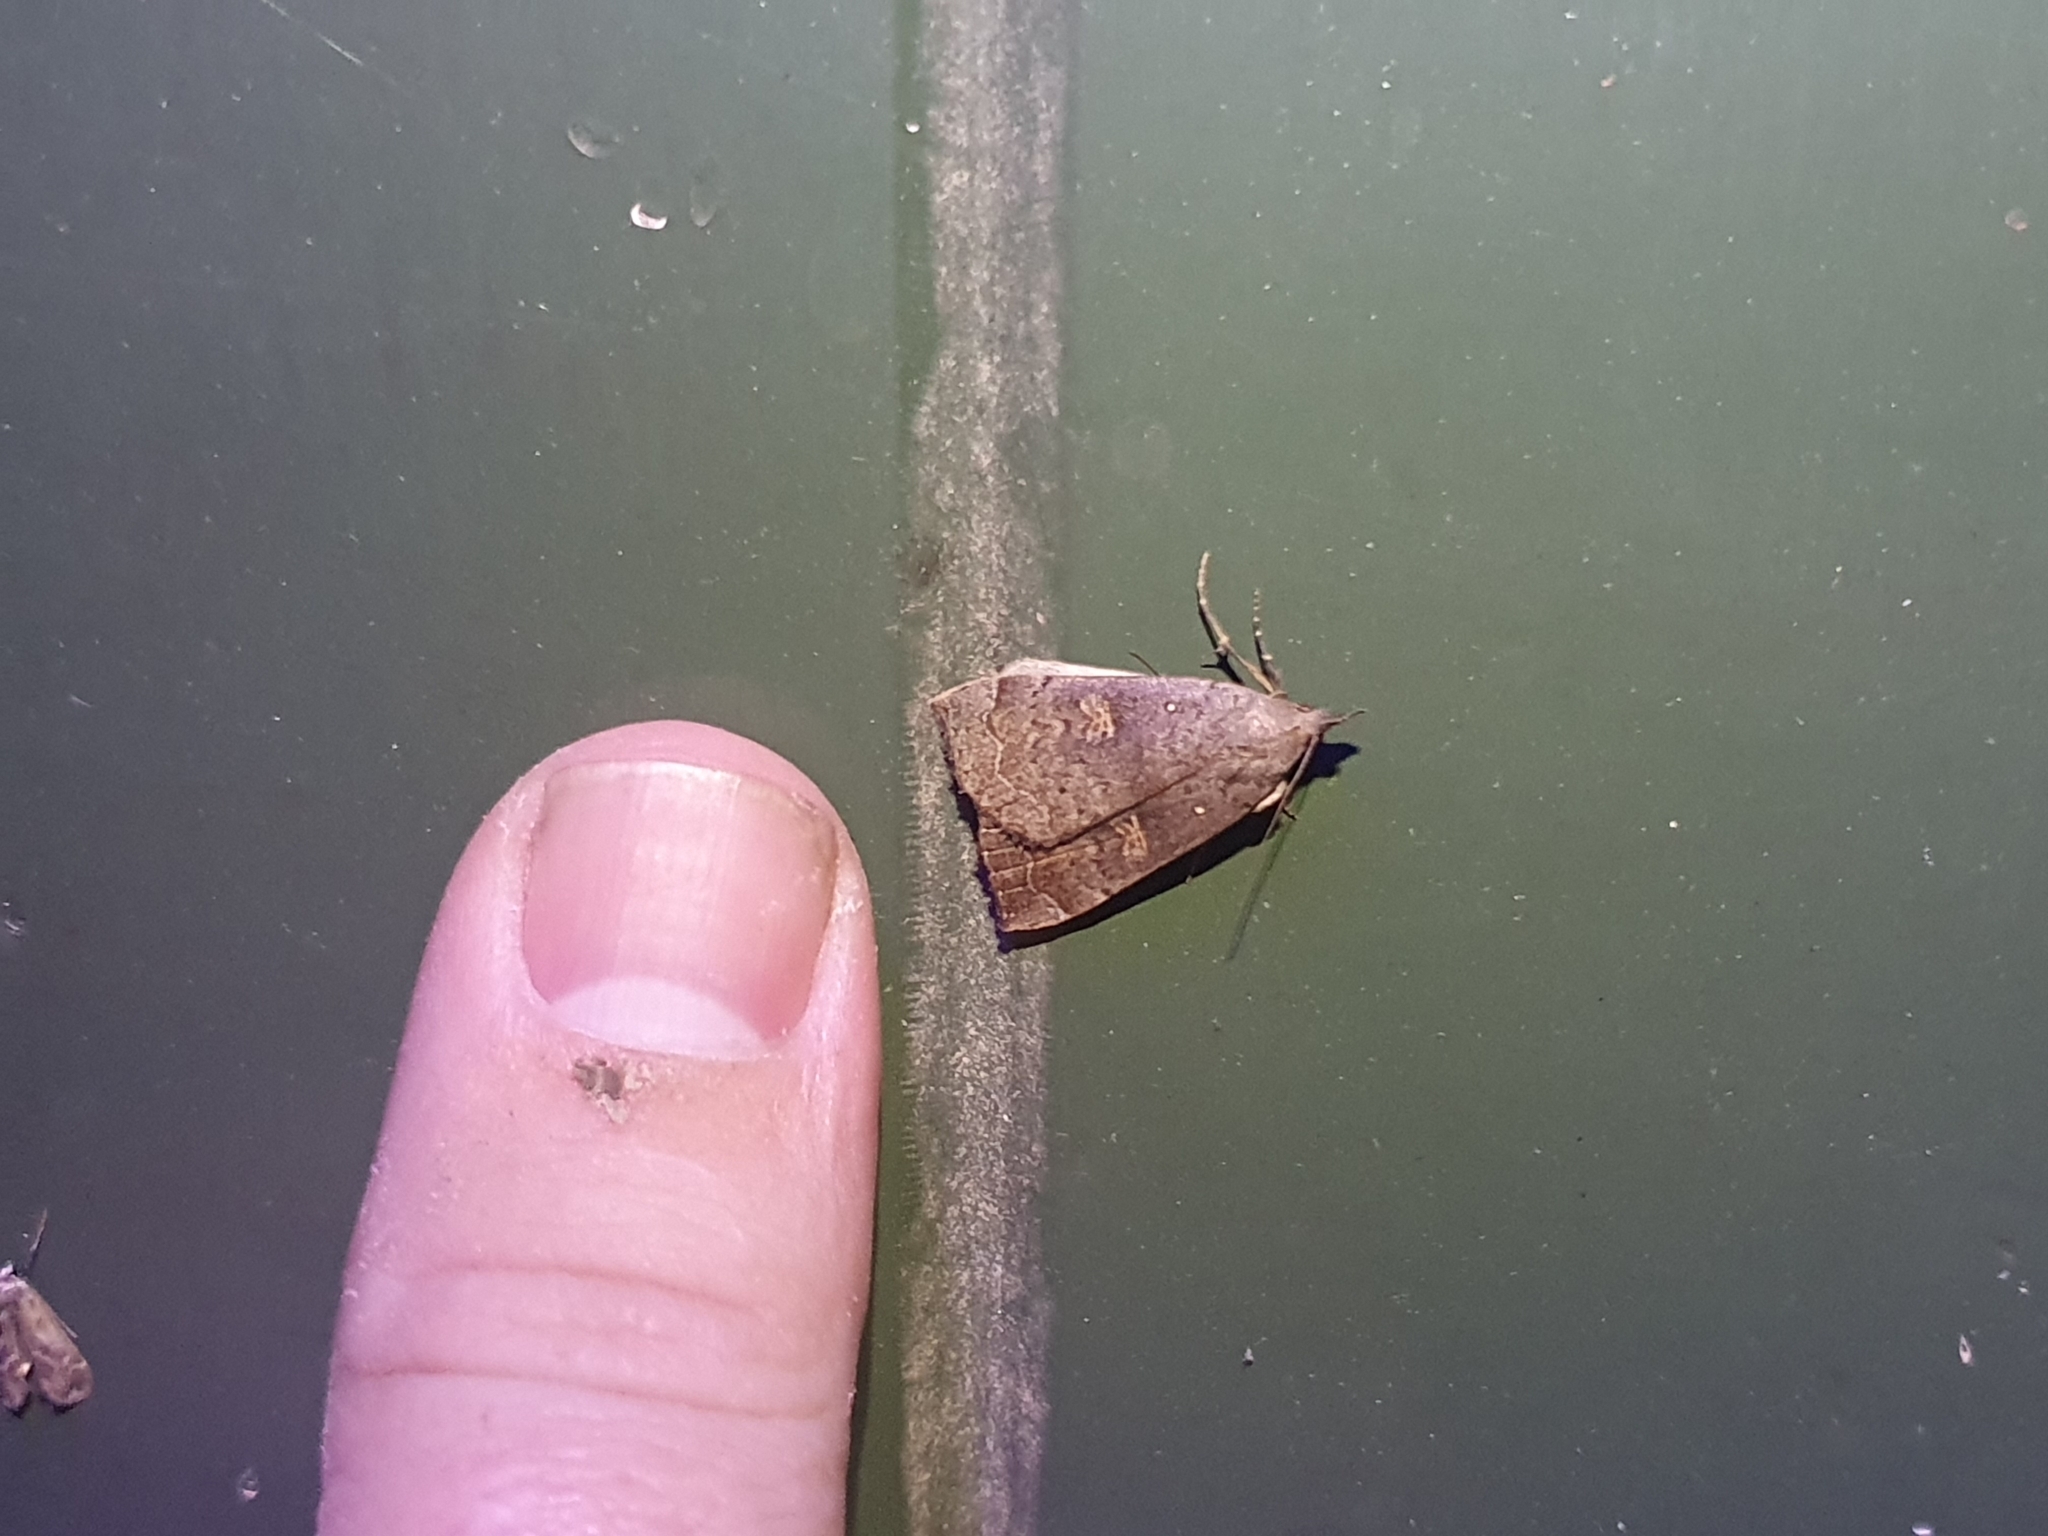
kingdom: Animalia
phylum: Arthropoda
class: Insecta
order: Lepidoptera
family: Erebidae
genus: Rhapsa
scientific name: Rhapsa scotosialis
